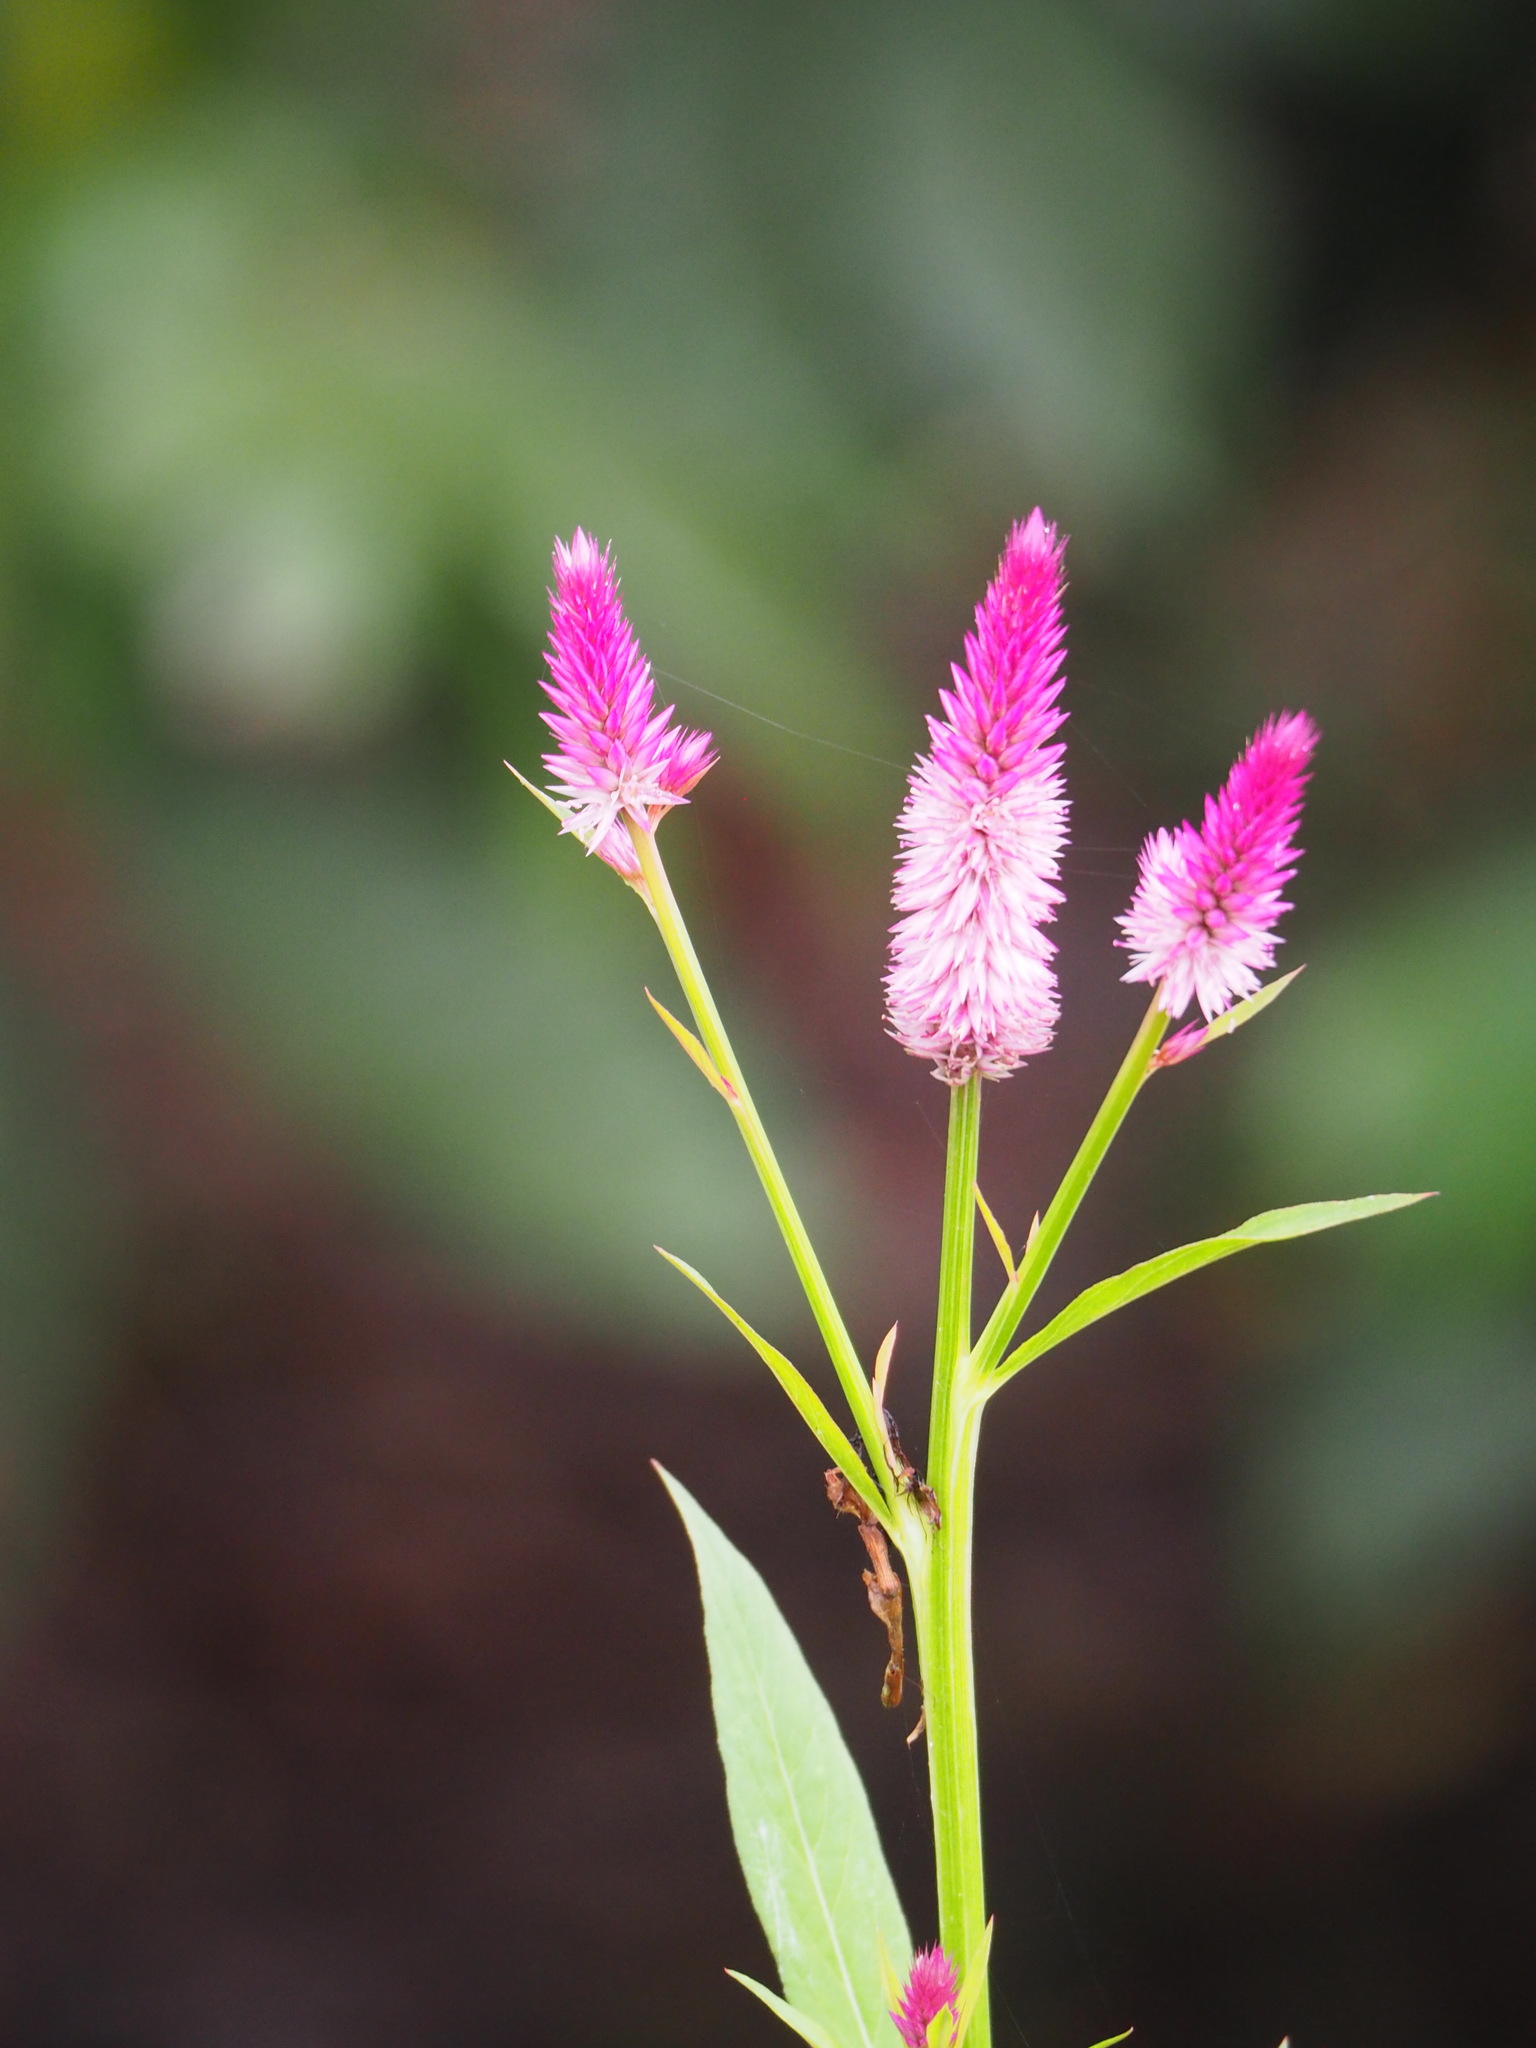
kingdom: Plantae
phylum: Tracheophyta
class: Magnoliopsida
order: Caryophyllales
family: Amaranthaceae
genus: Celosia
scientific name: Celosia argentea
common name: Feather cockscomb
